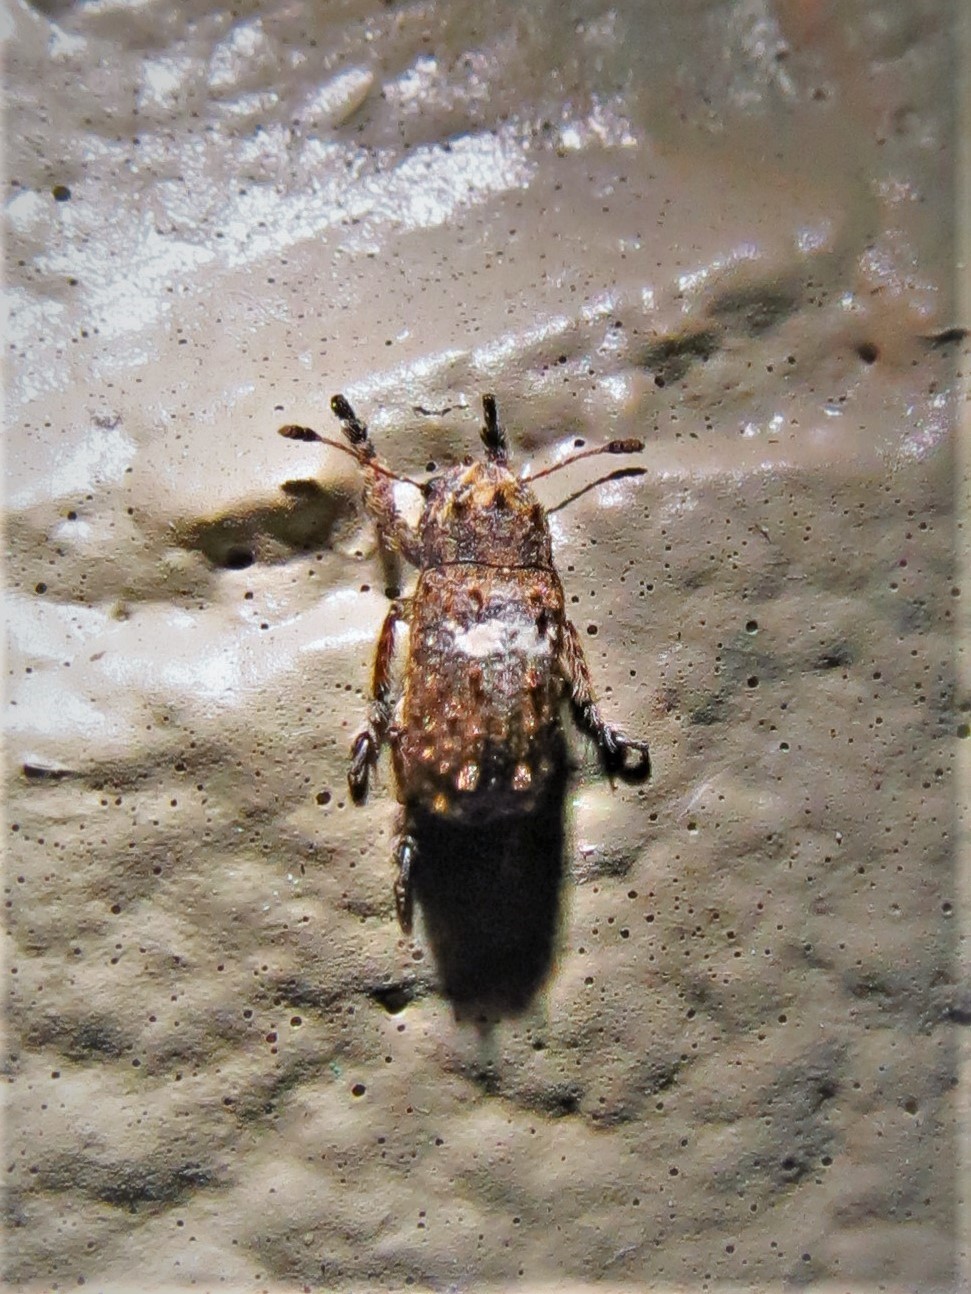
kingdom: Animalia
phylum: Arthropoda
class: Insecta
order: Coleoptera
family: Anthribidae
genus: Toxonotus
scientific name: Toxonotus cornutus
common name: Fungus weevil
